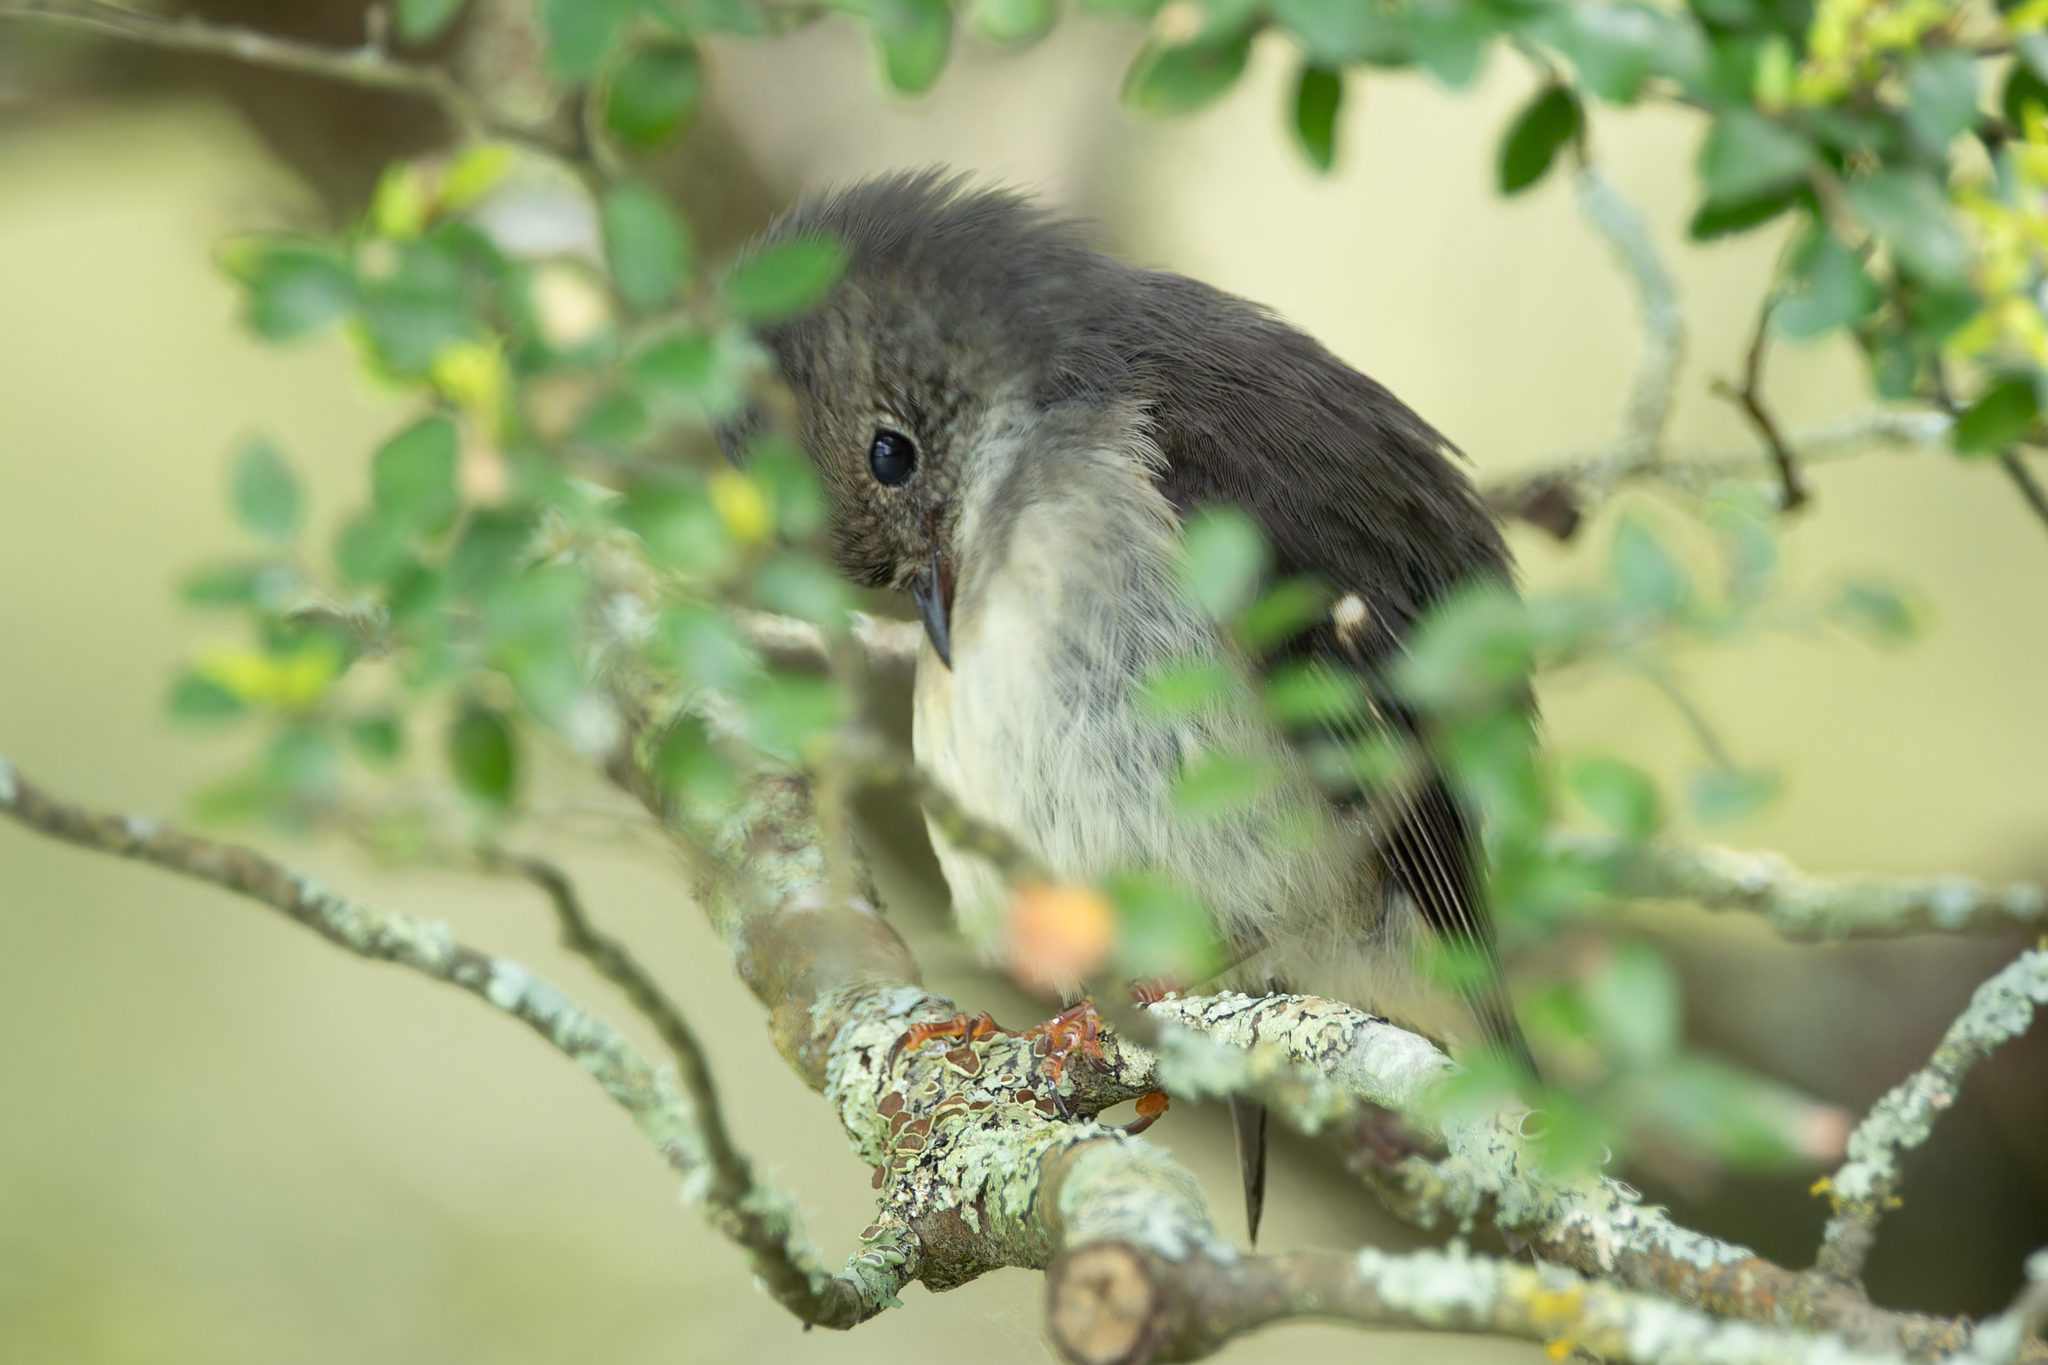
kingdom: Animalia
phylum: Chordata
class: Aves
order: Passeriformes
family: Petroicidae
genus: Petroica
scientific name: Petroica macrocephala
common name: Tomtit
